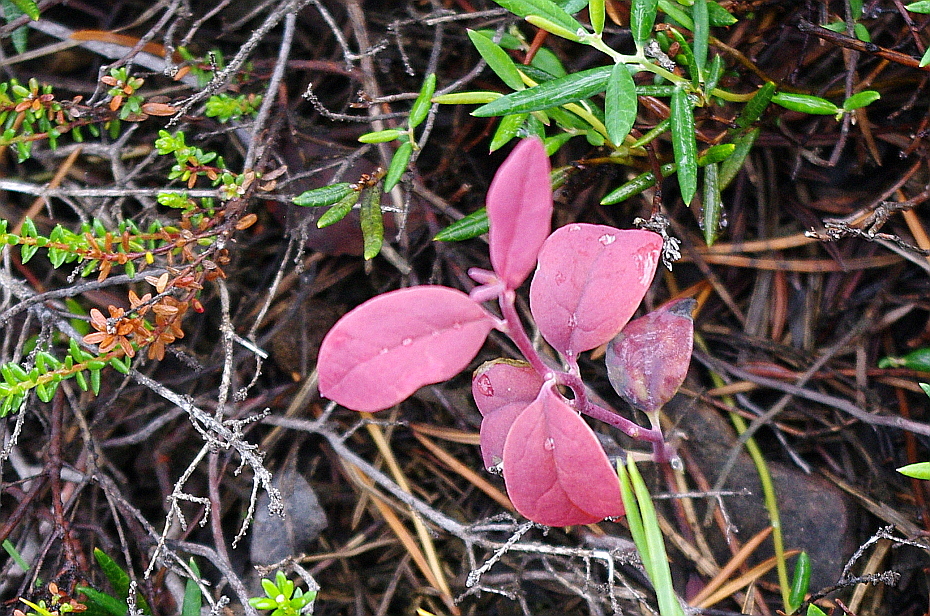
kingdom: Plantae
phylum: Tracheophyta
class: Magnoliopsida
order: Ericales
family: Ericaceae
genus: Andromeda
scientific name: Andromeda polifolia
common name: Bog-rosemary
